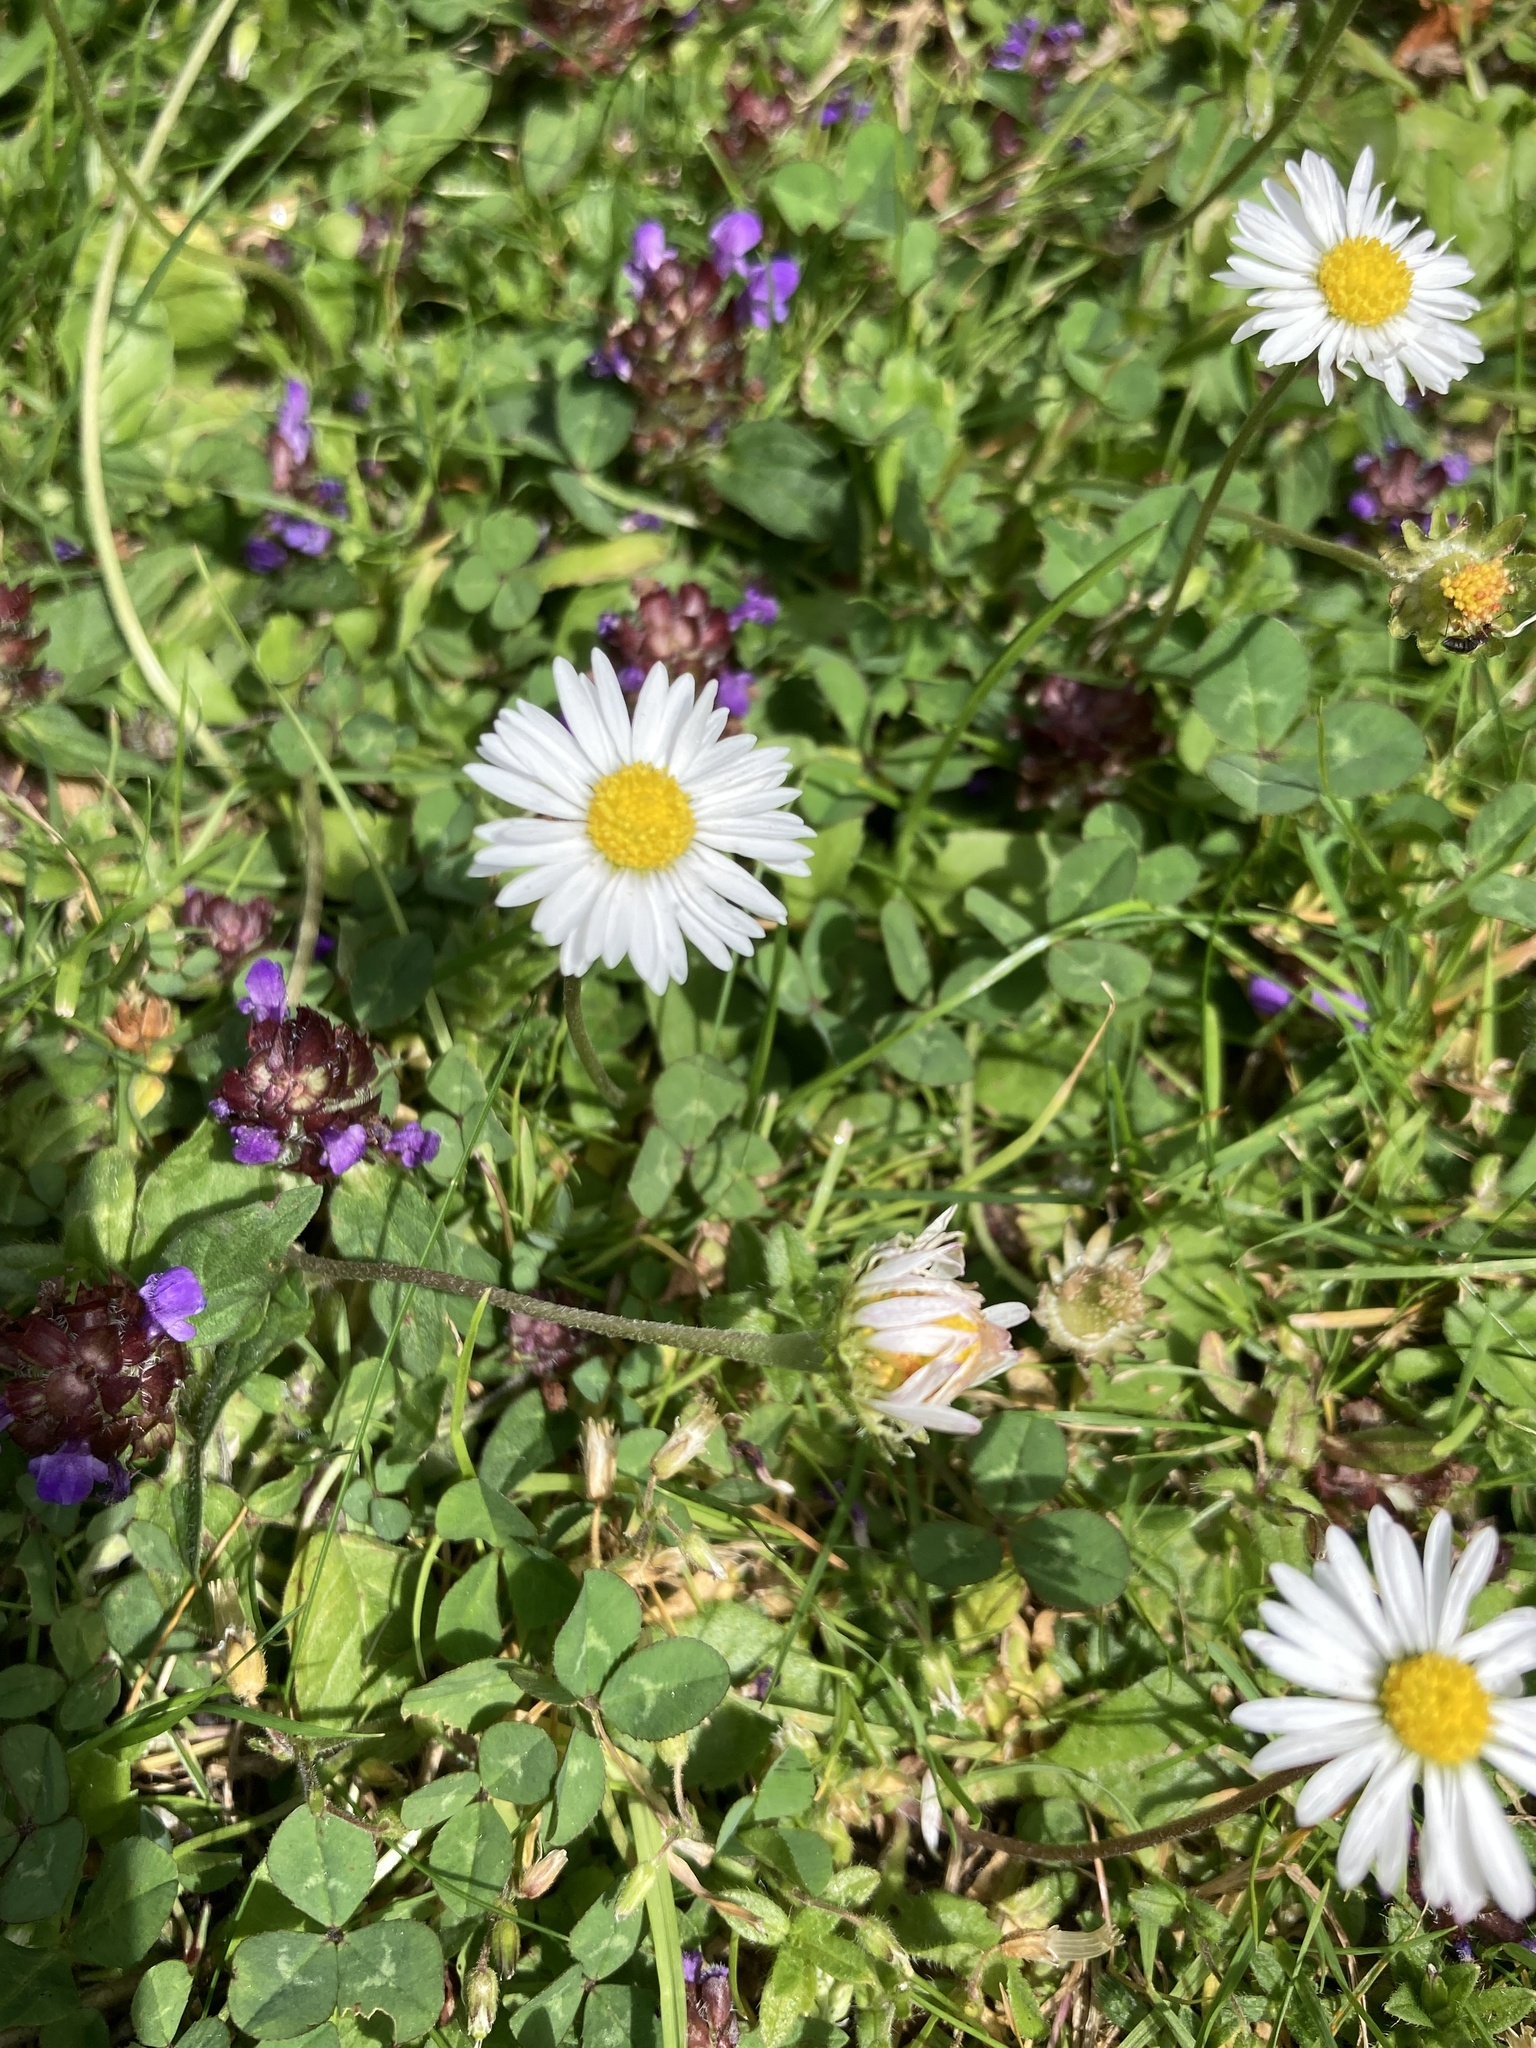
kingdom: Plantae
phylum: Tracheophyta
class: Magnoliopsida
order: Asterales
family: Asteraceae
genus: Bellis
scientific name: Bellis perennis
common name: Lawndaisy
